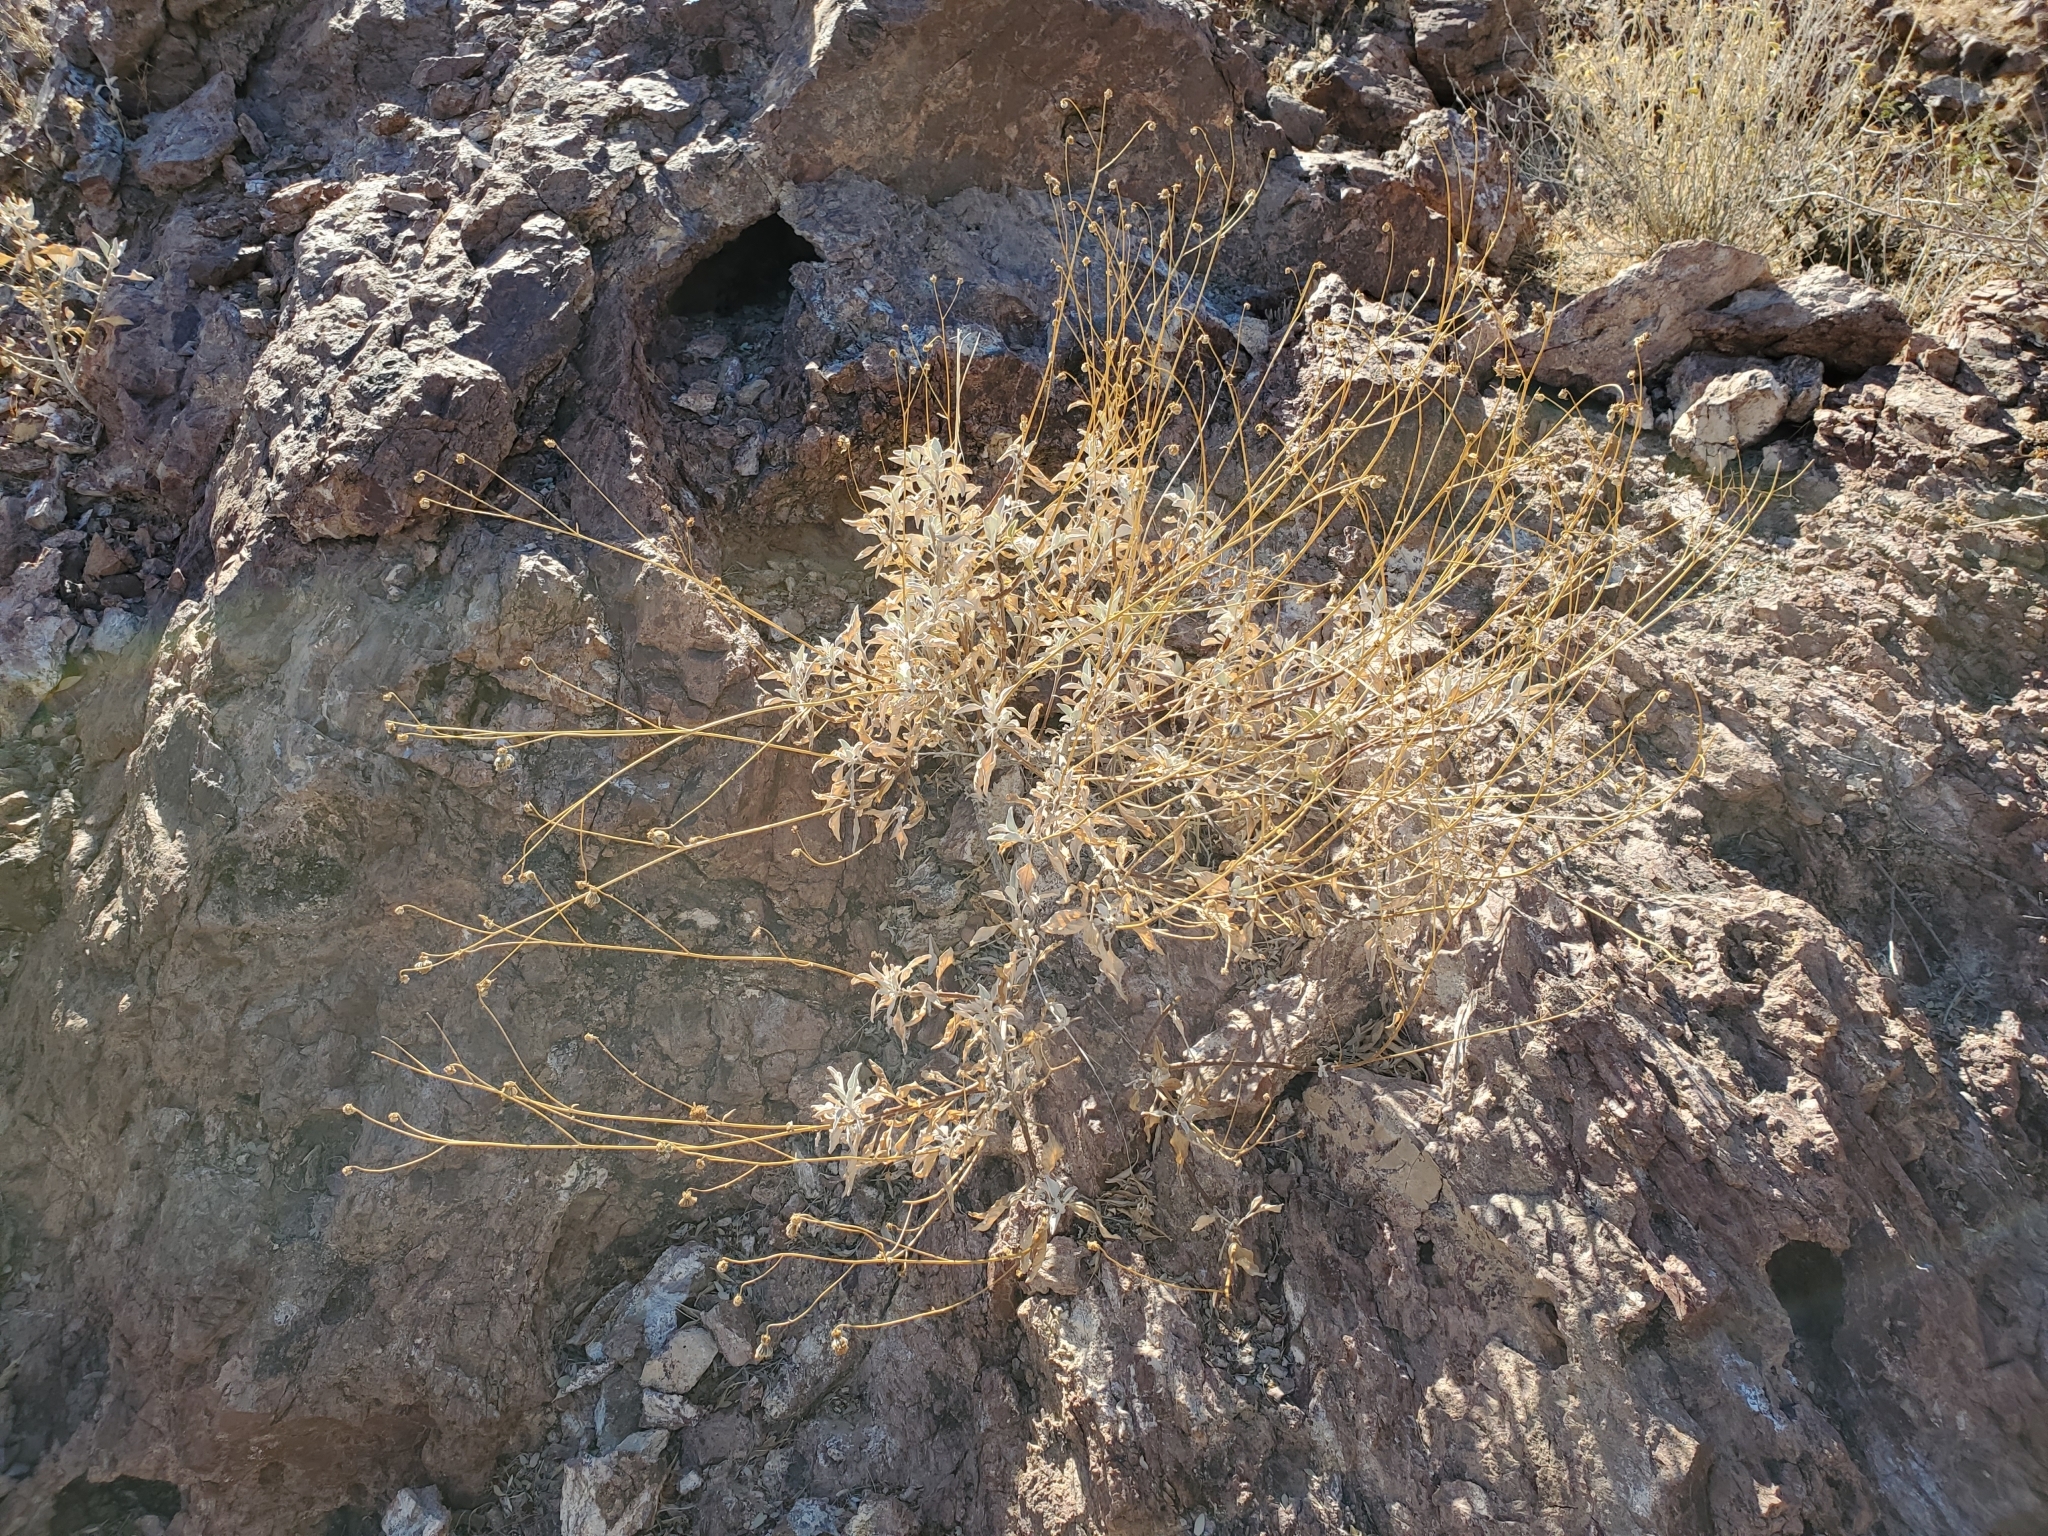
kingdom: Plantae
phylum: Tracheophyta
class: Magnoliopsida
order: Asterales
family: Asteraceae
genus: Encelia
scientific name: Encelia farinosa
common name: Brittlebush
